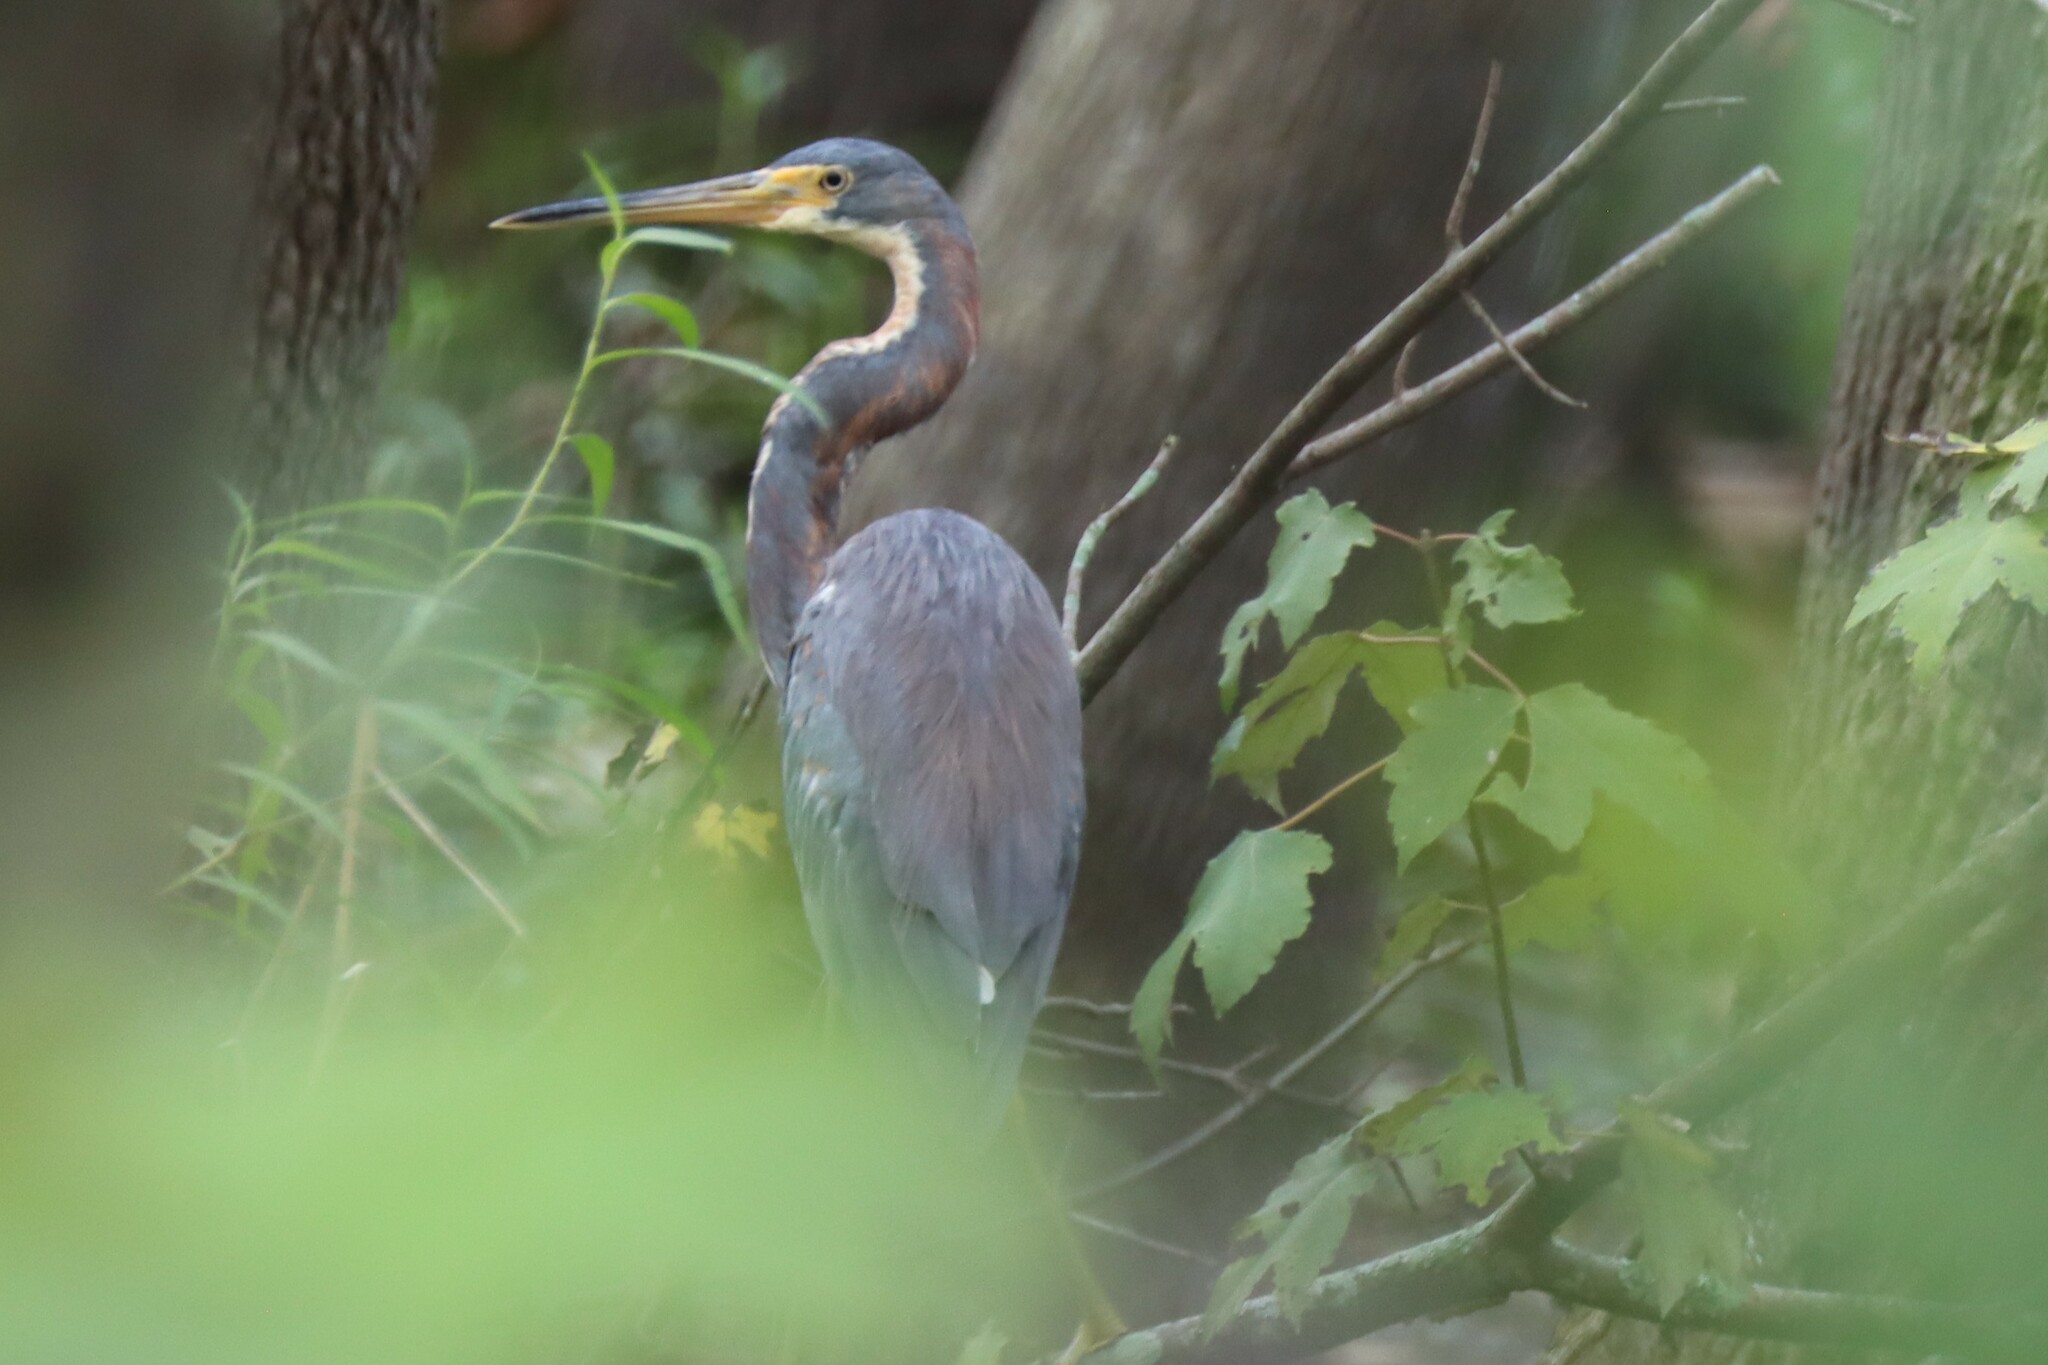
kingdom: Animalia
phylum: Chordata
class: Aves
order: Pelecaniformes
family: Ardeidae
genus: Egretta
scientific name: Egretta tricolor
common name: Tricolored heron
